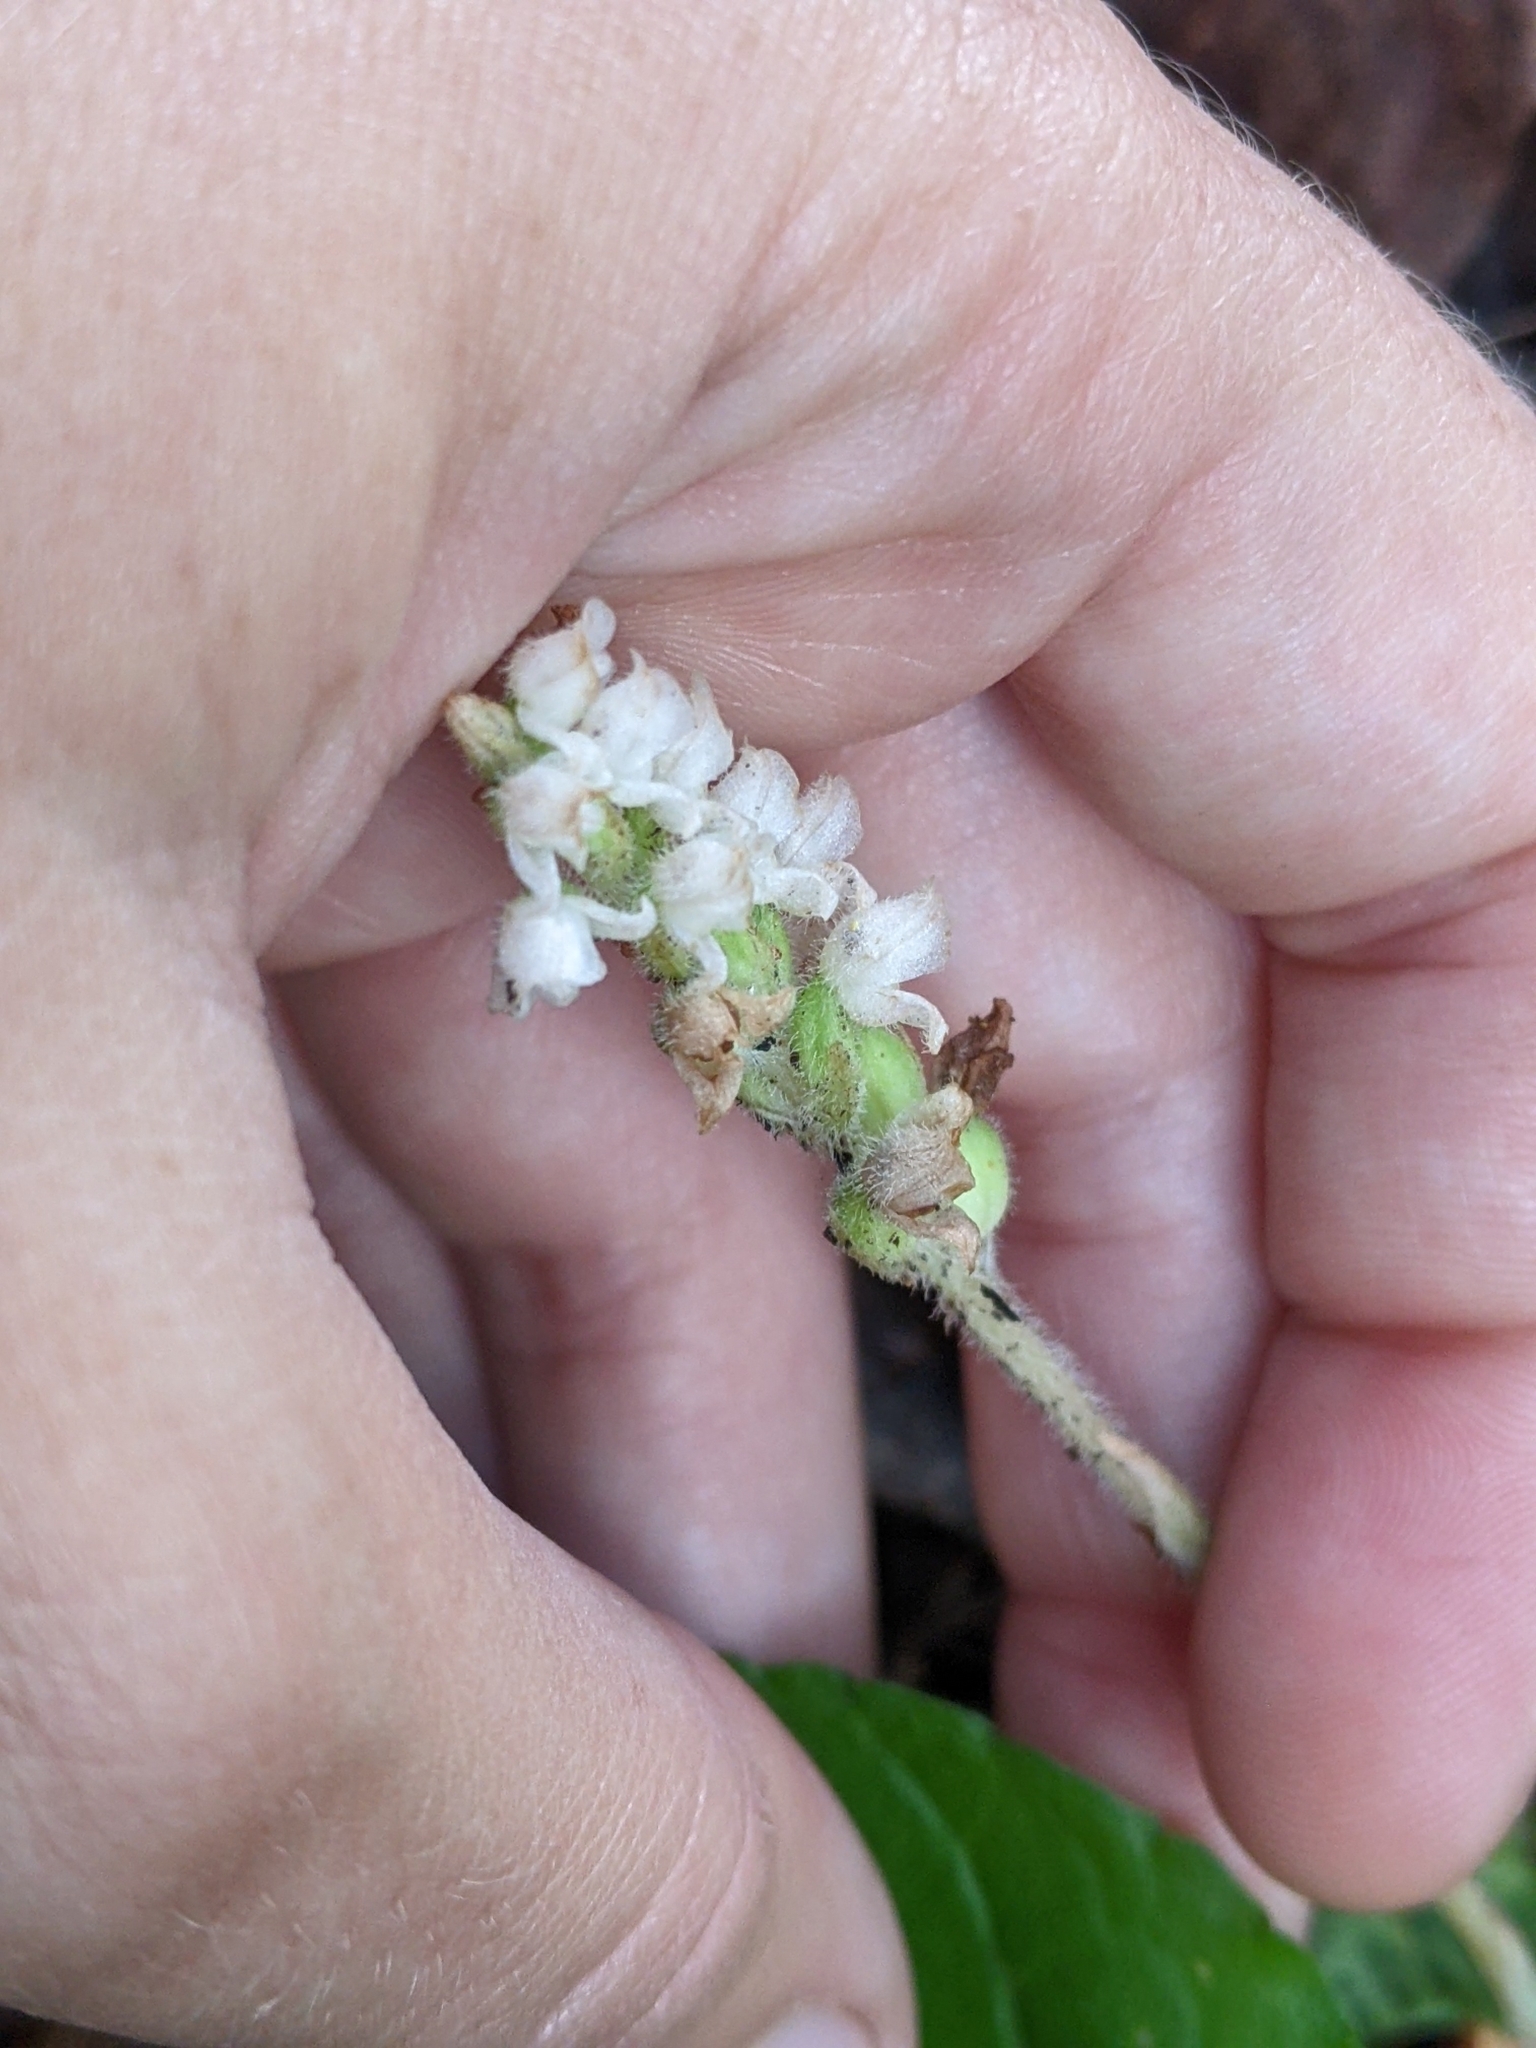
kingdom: Plantae
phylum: Tracheophyta
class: Liliopsida
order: Asparagales
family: Orchidaceae
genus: Goodyera
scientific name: Goodyera tesselata
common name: Checkered rattlesnake-plantain
